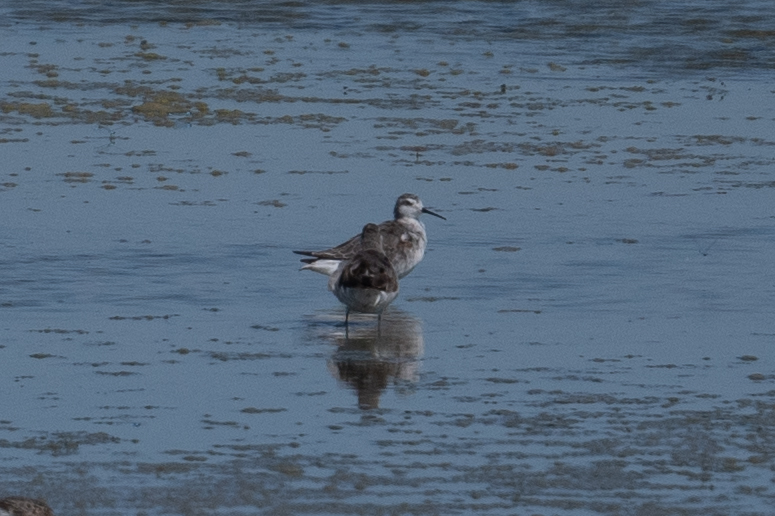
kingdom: Animalia
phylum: Chordata
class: Aves
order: Charadriiformes
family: Scolopacidae
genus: Phalaropus
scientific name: Phalaropus tricolor
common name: Wilson's phalarope
